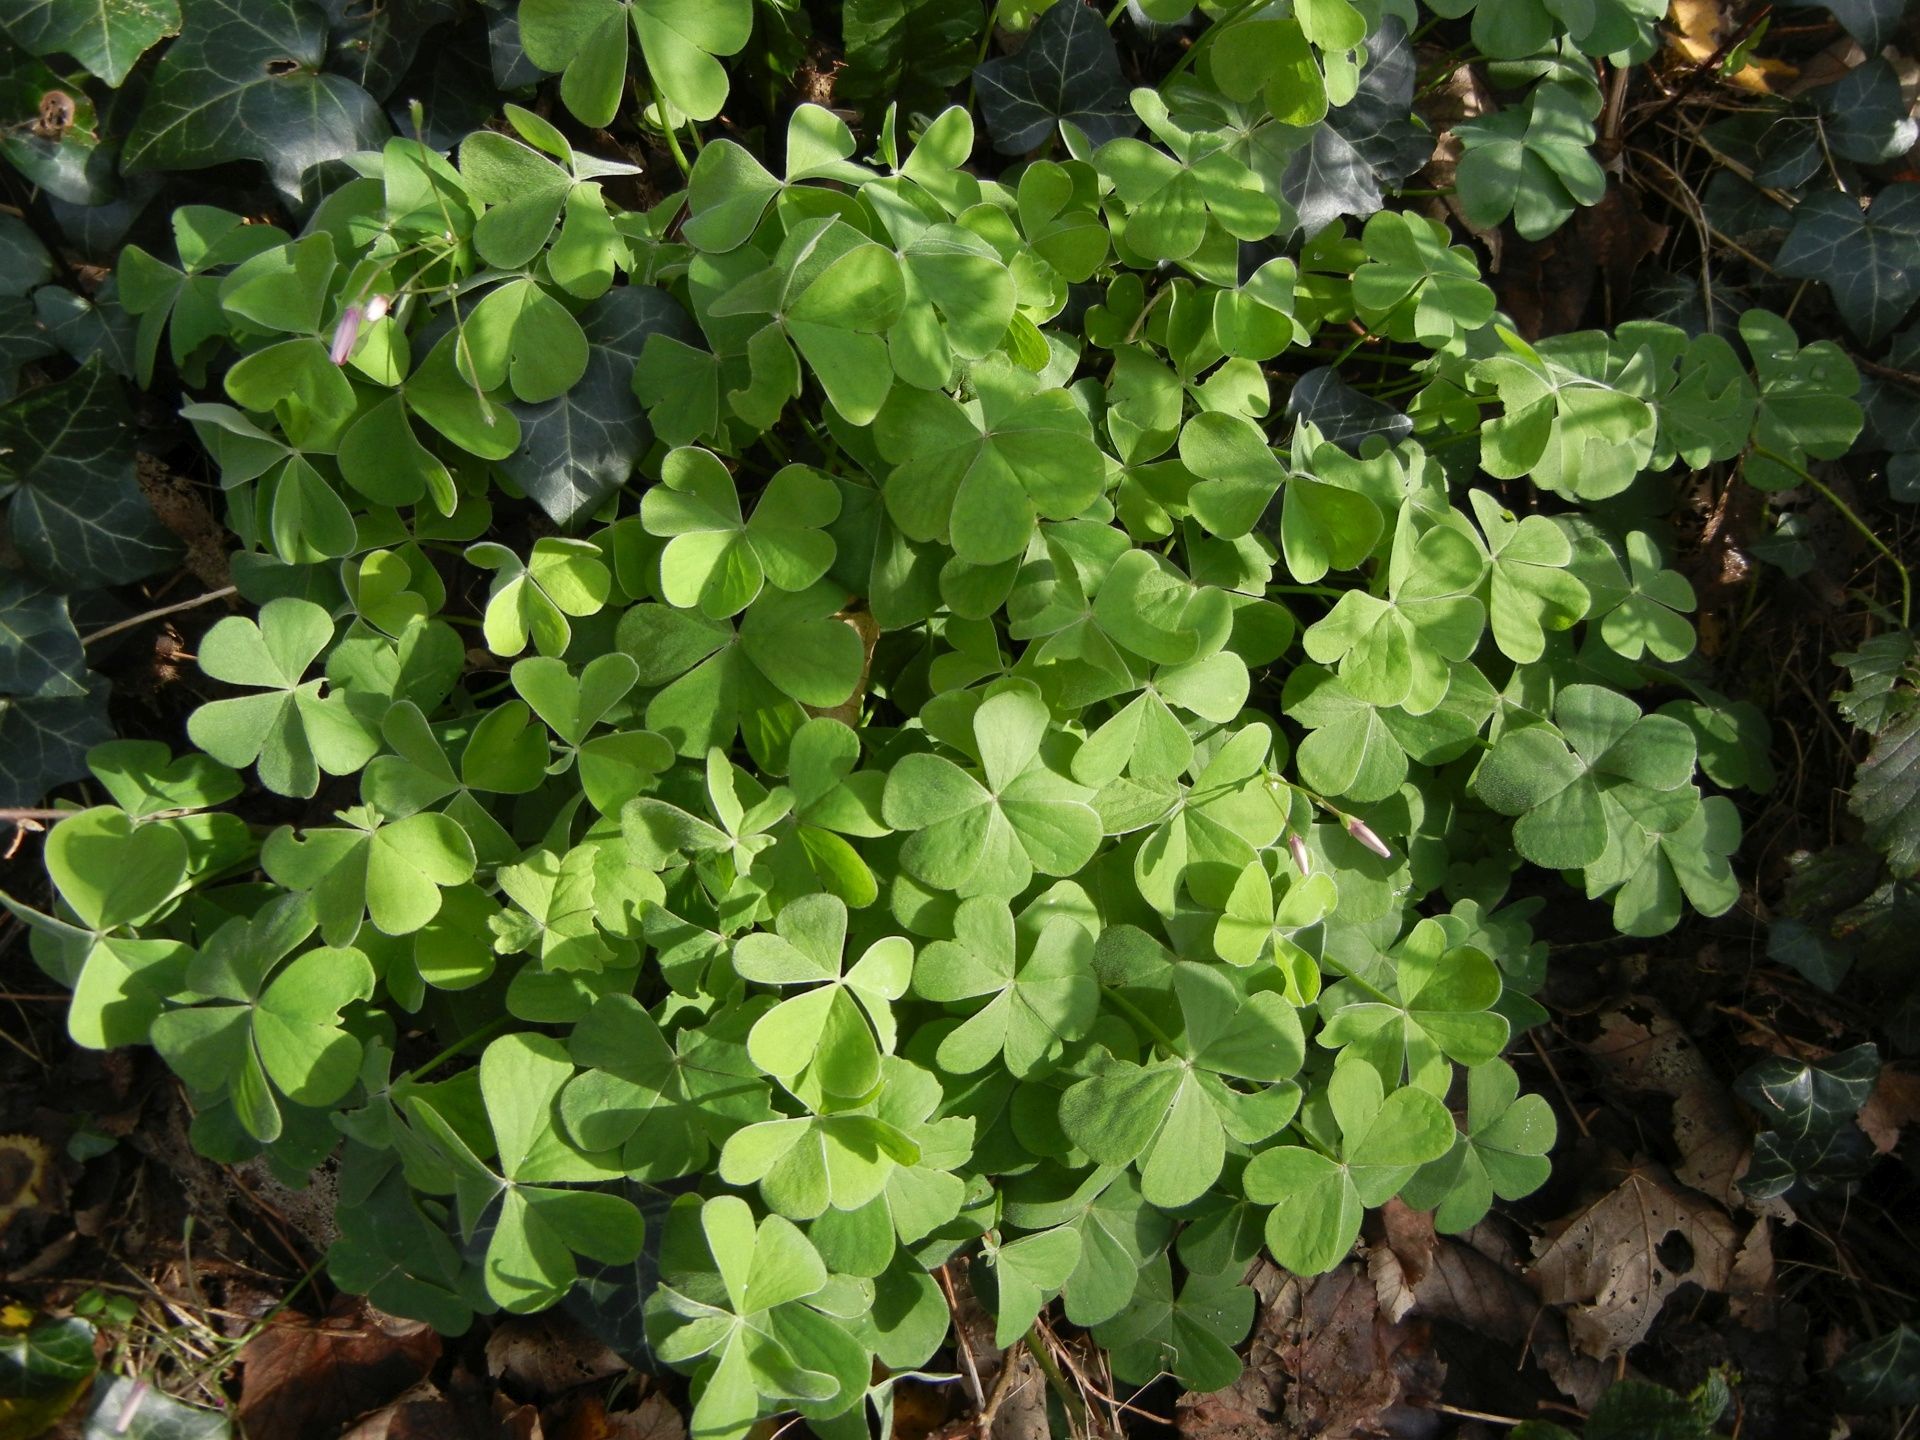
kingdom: Plantae
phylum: Tracheophyta
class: Magnoliopsida
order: Oxalidales
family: Oxalidaceae
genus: Oxalis
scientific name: Oxalis articulata
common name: Pink-sorrel
